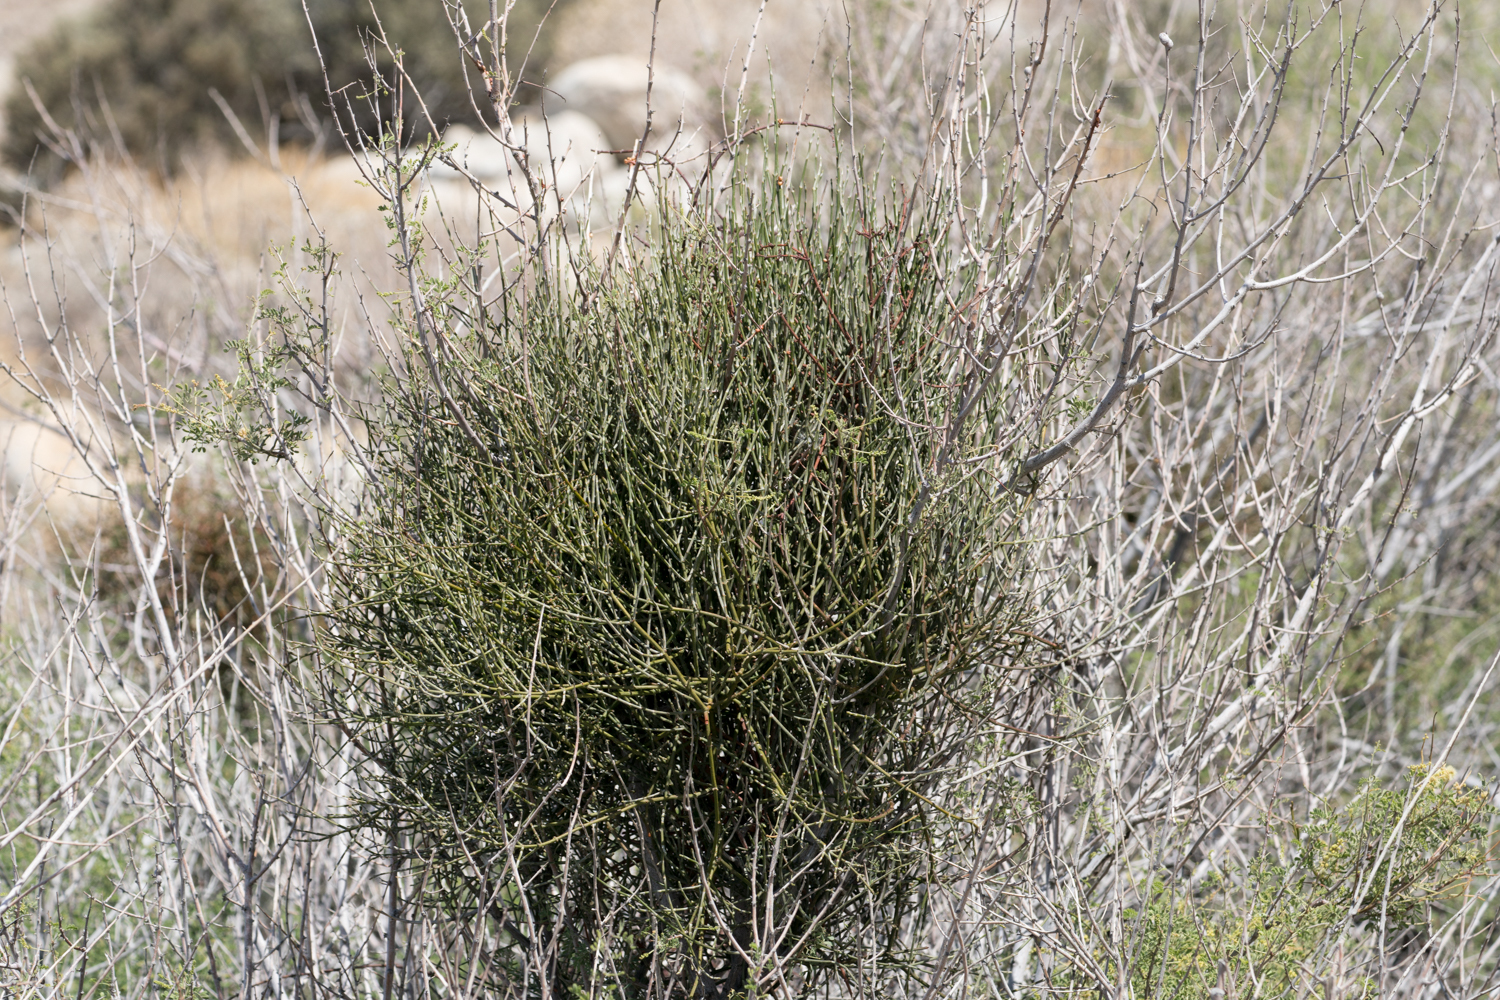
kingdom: Plantae
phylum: Tracheophyta
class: Magnoliopsida
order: Santalales
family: Viscaceae
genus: Phoradendron
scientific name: Phoradendron californicum
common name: Acacia mistletoe
